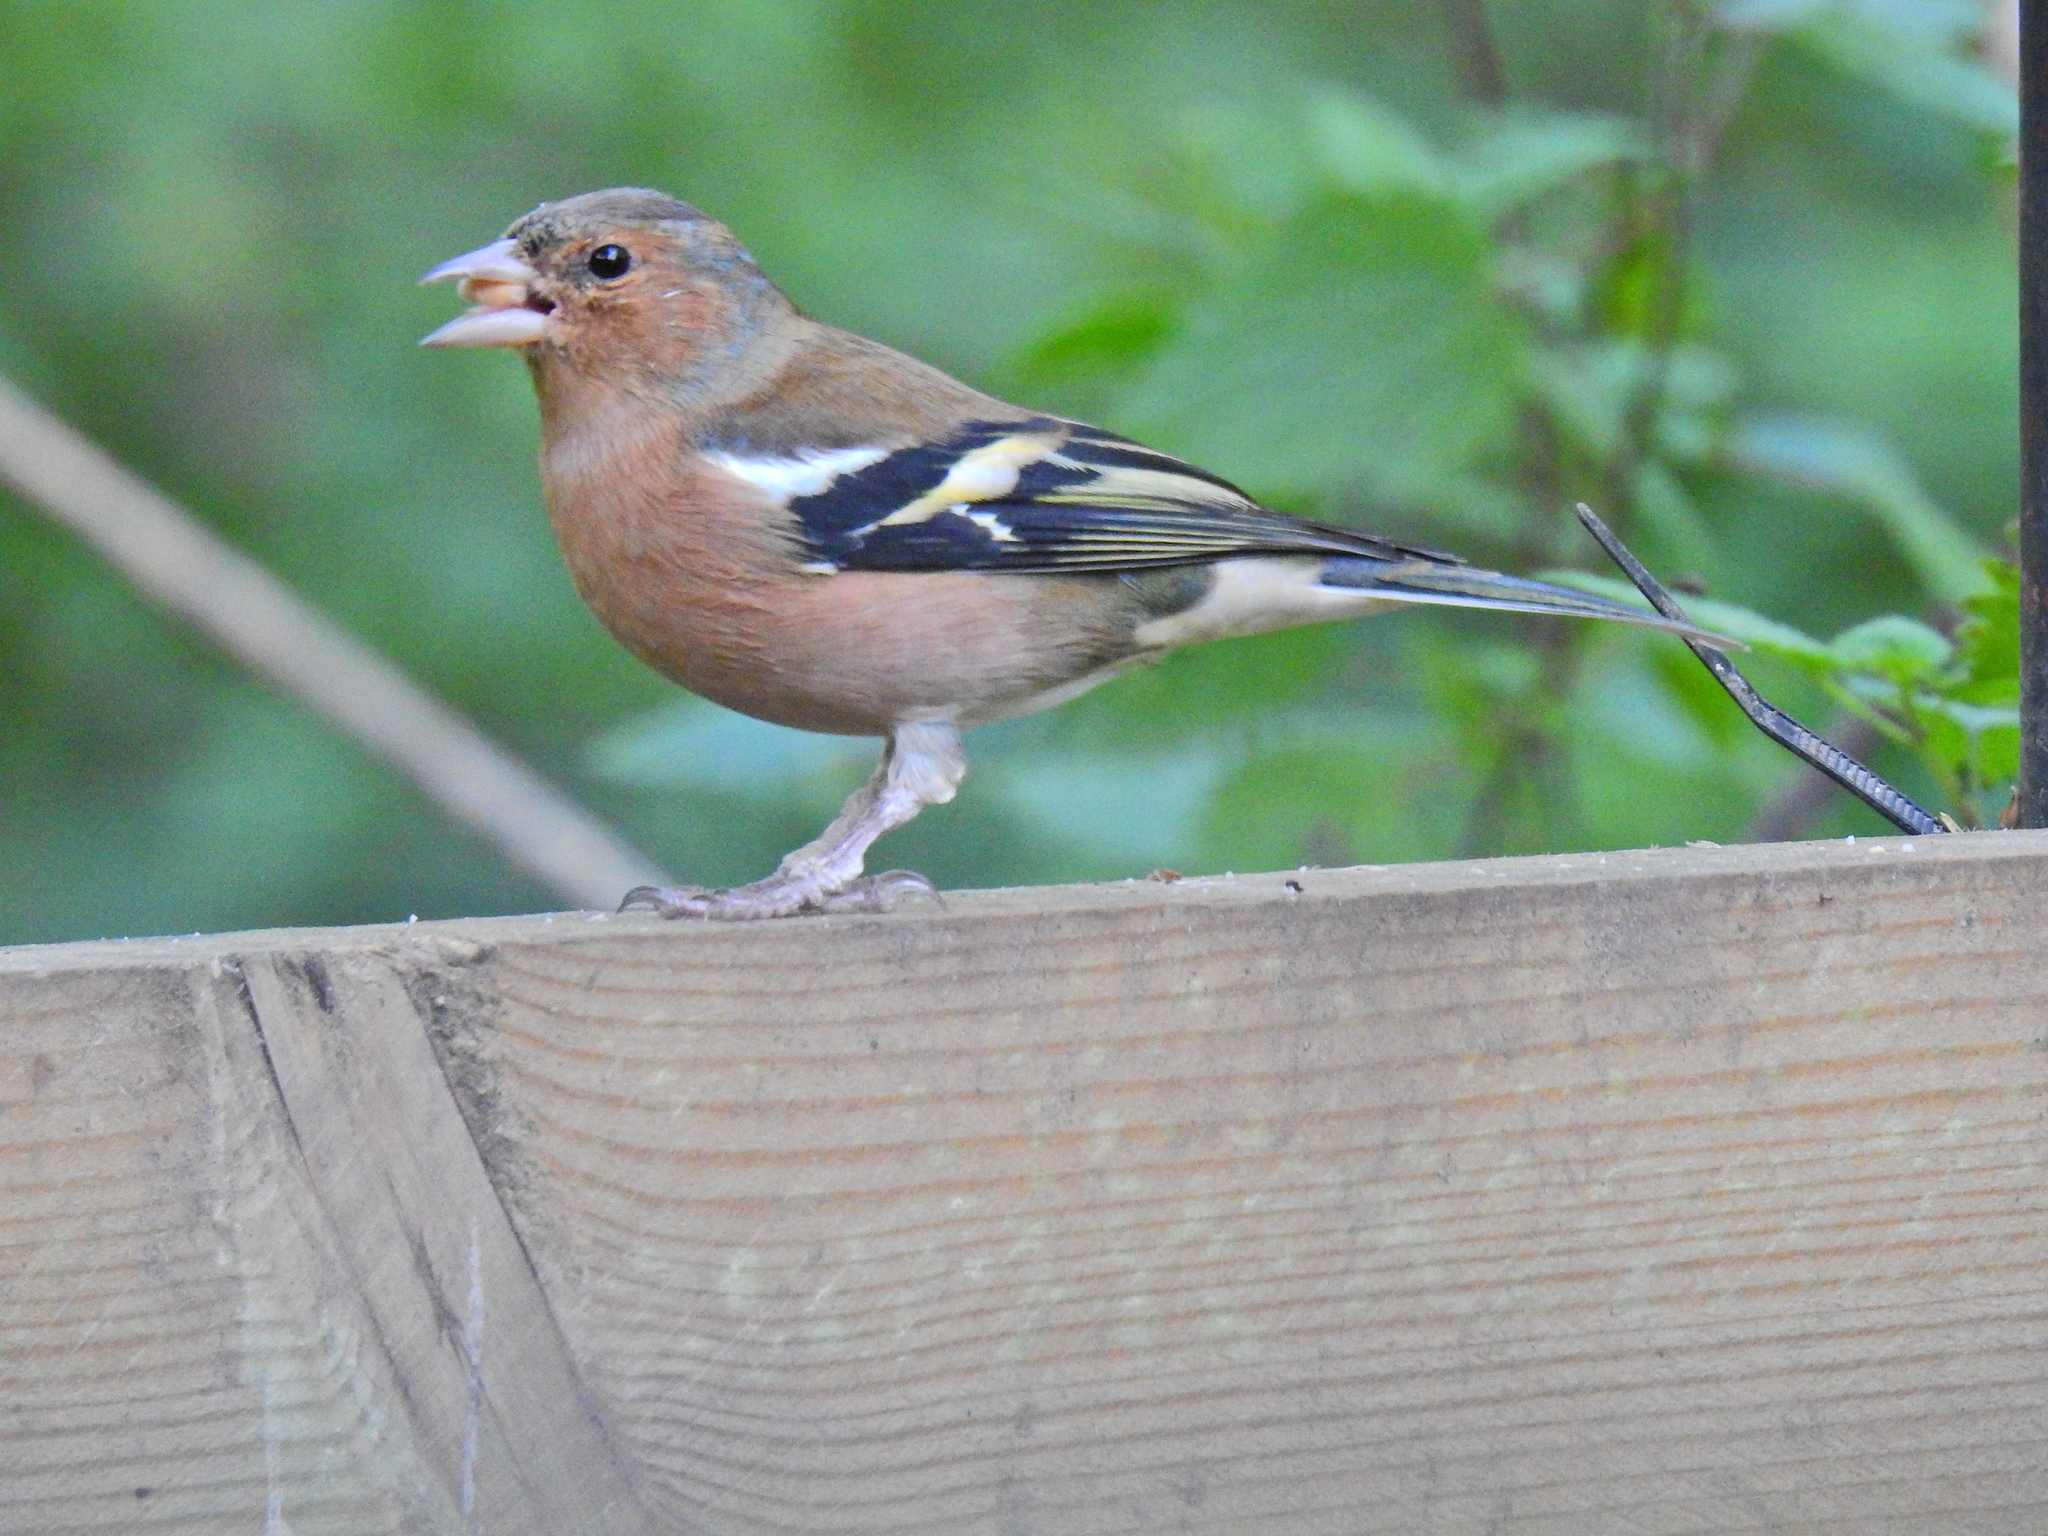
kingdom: Animalia
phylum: Chordata
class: Aves
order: Passeriformes
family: Fringillidae
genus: Fringilla
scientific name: Fringilla coelebs
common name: Common chaffinch
